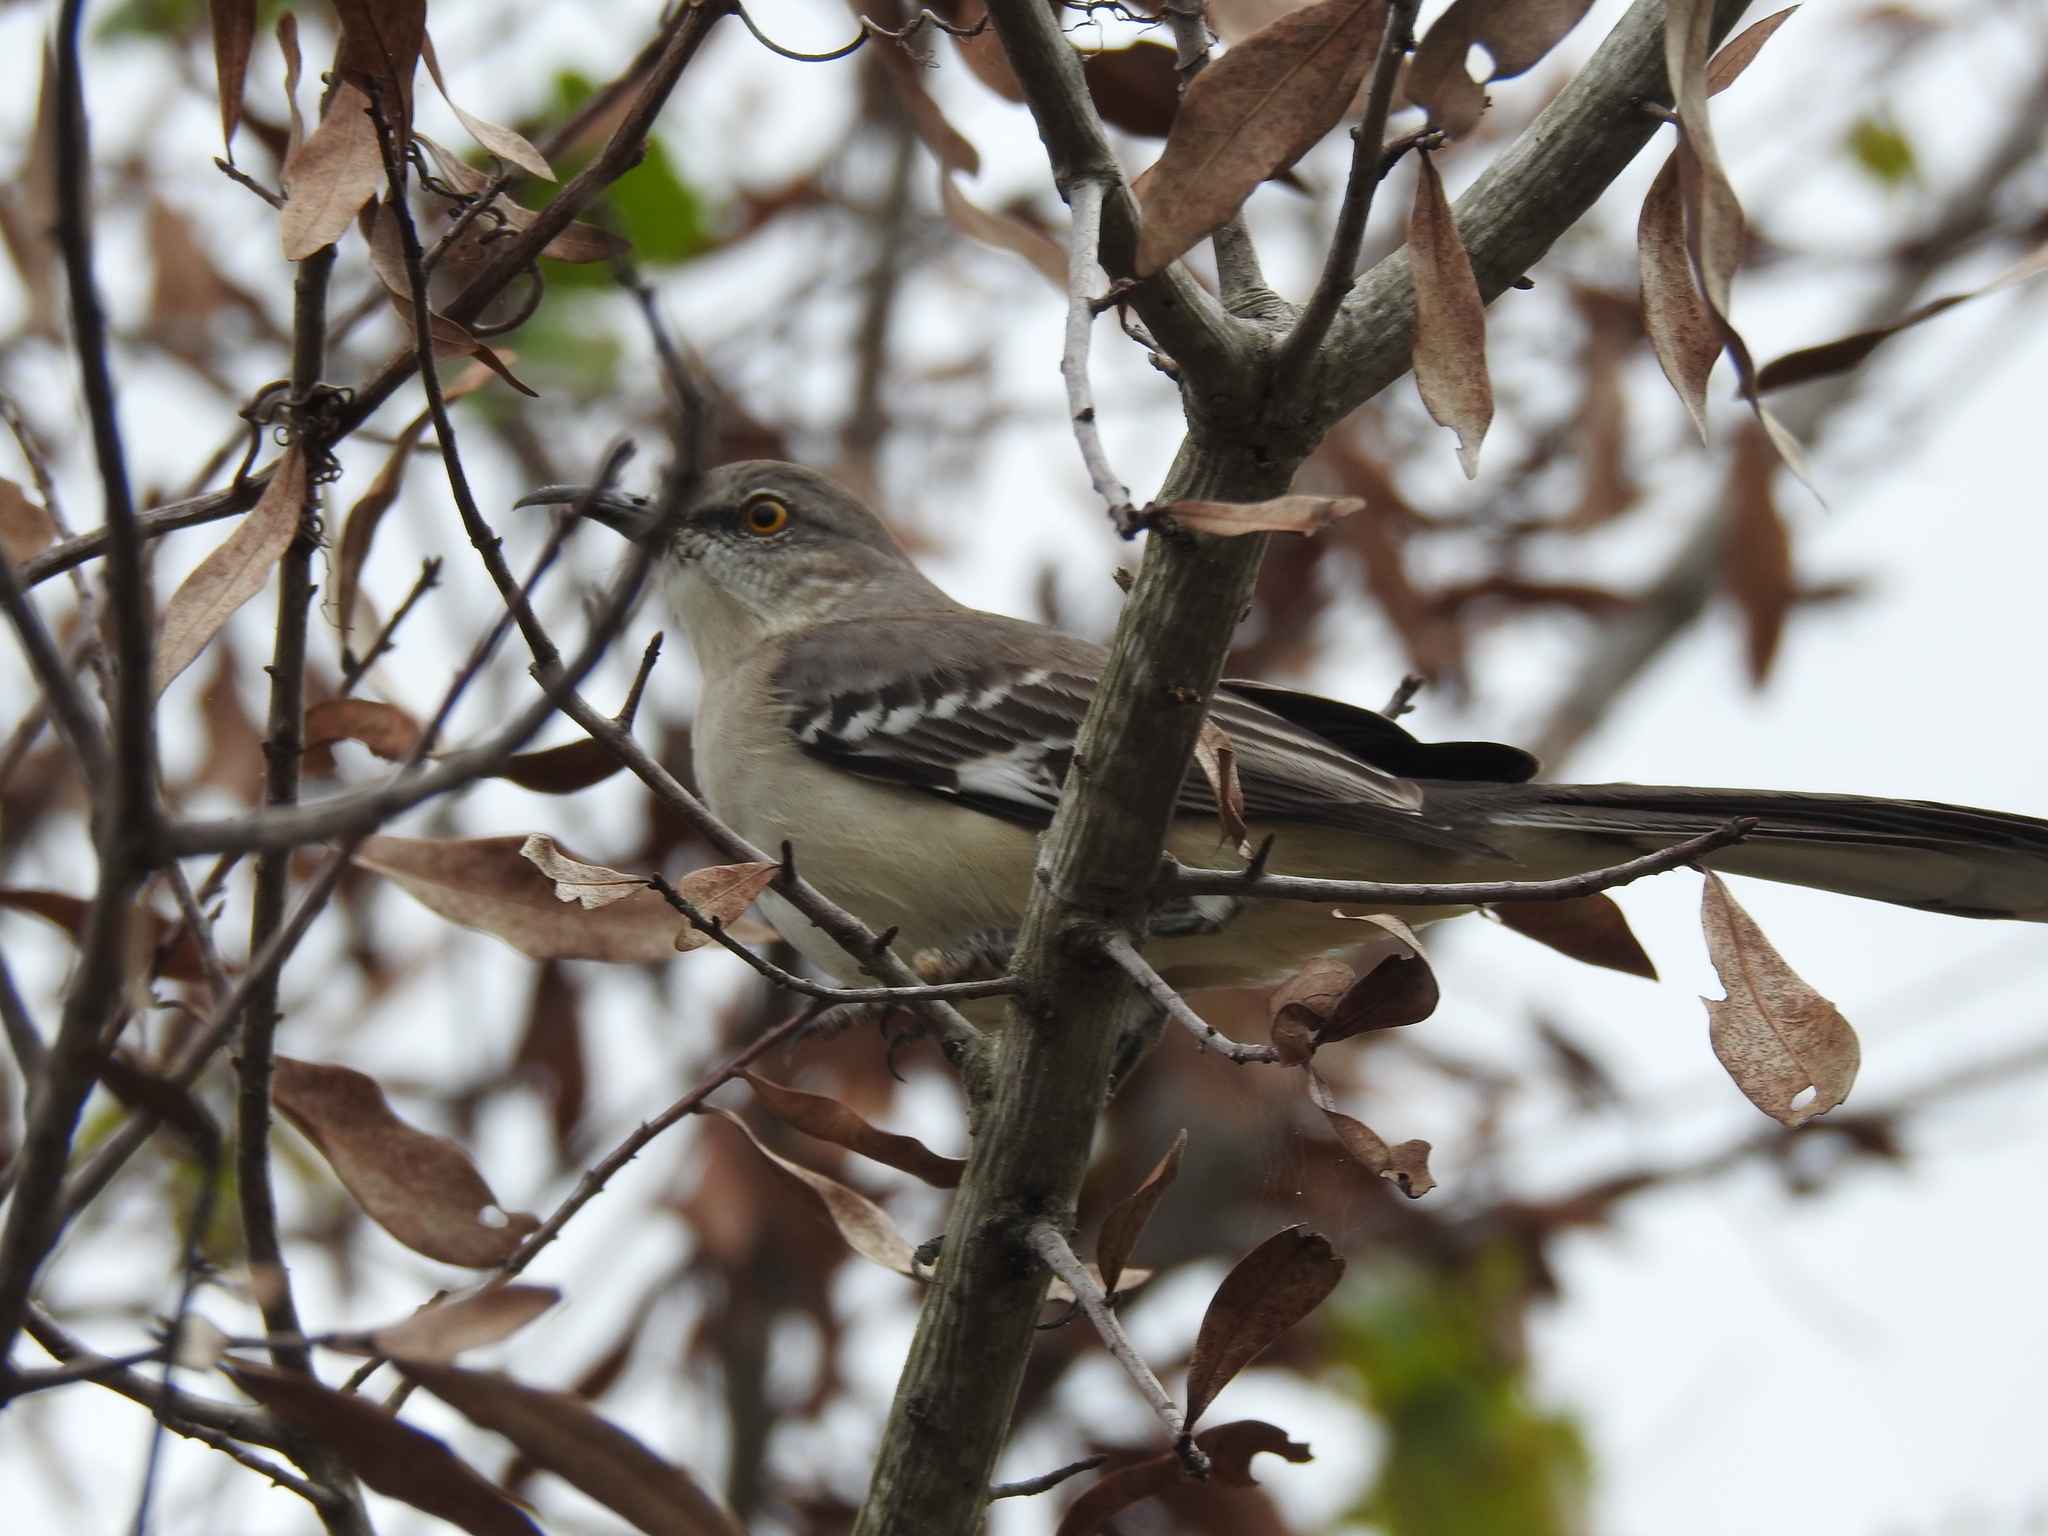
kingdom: Animalia
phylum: Chordata
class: Aves
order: Passeriformes
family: Mimidae
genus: Mimus
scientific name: Mimus polyglottos
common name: Northern mockingbird
